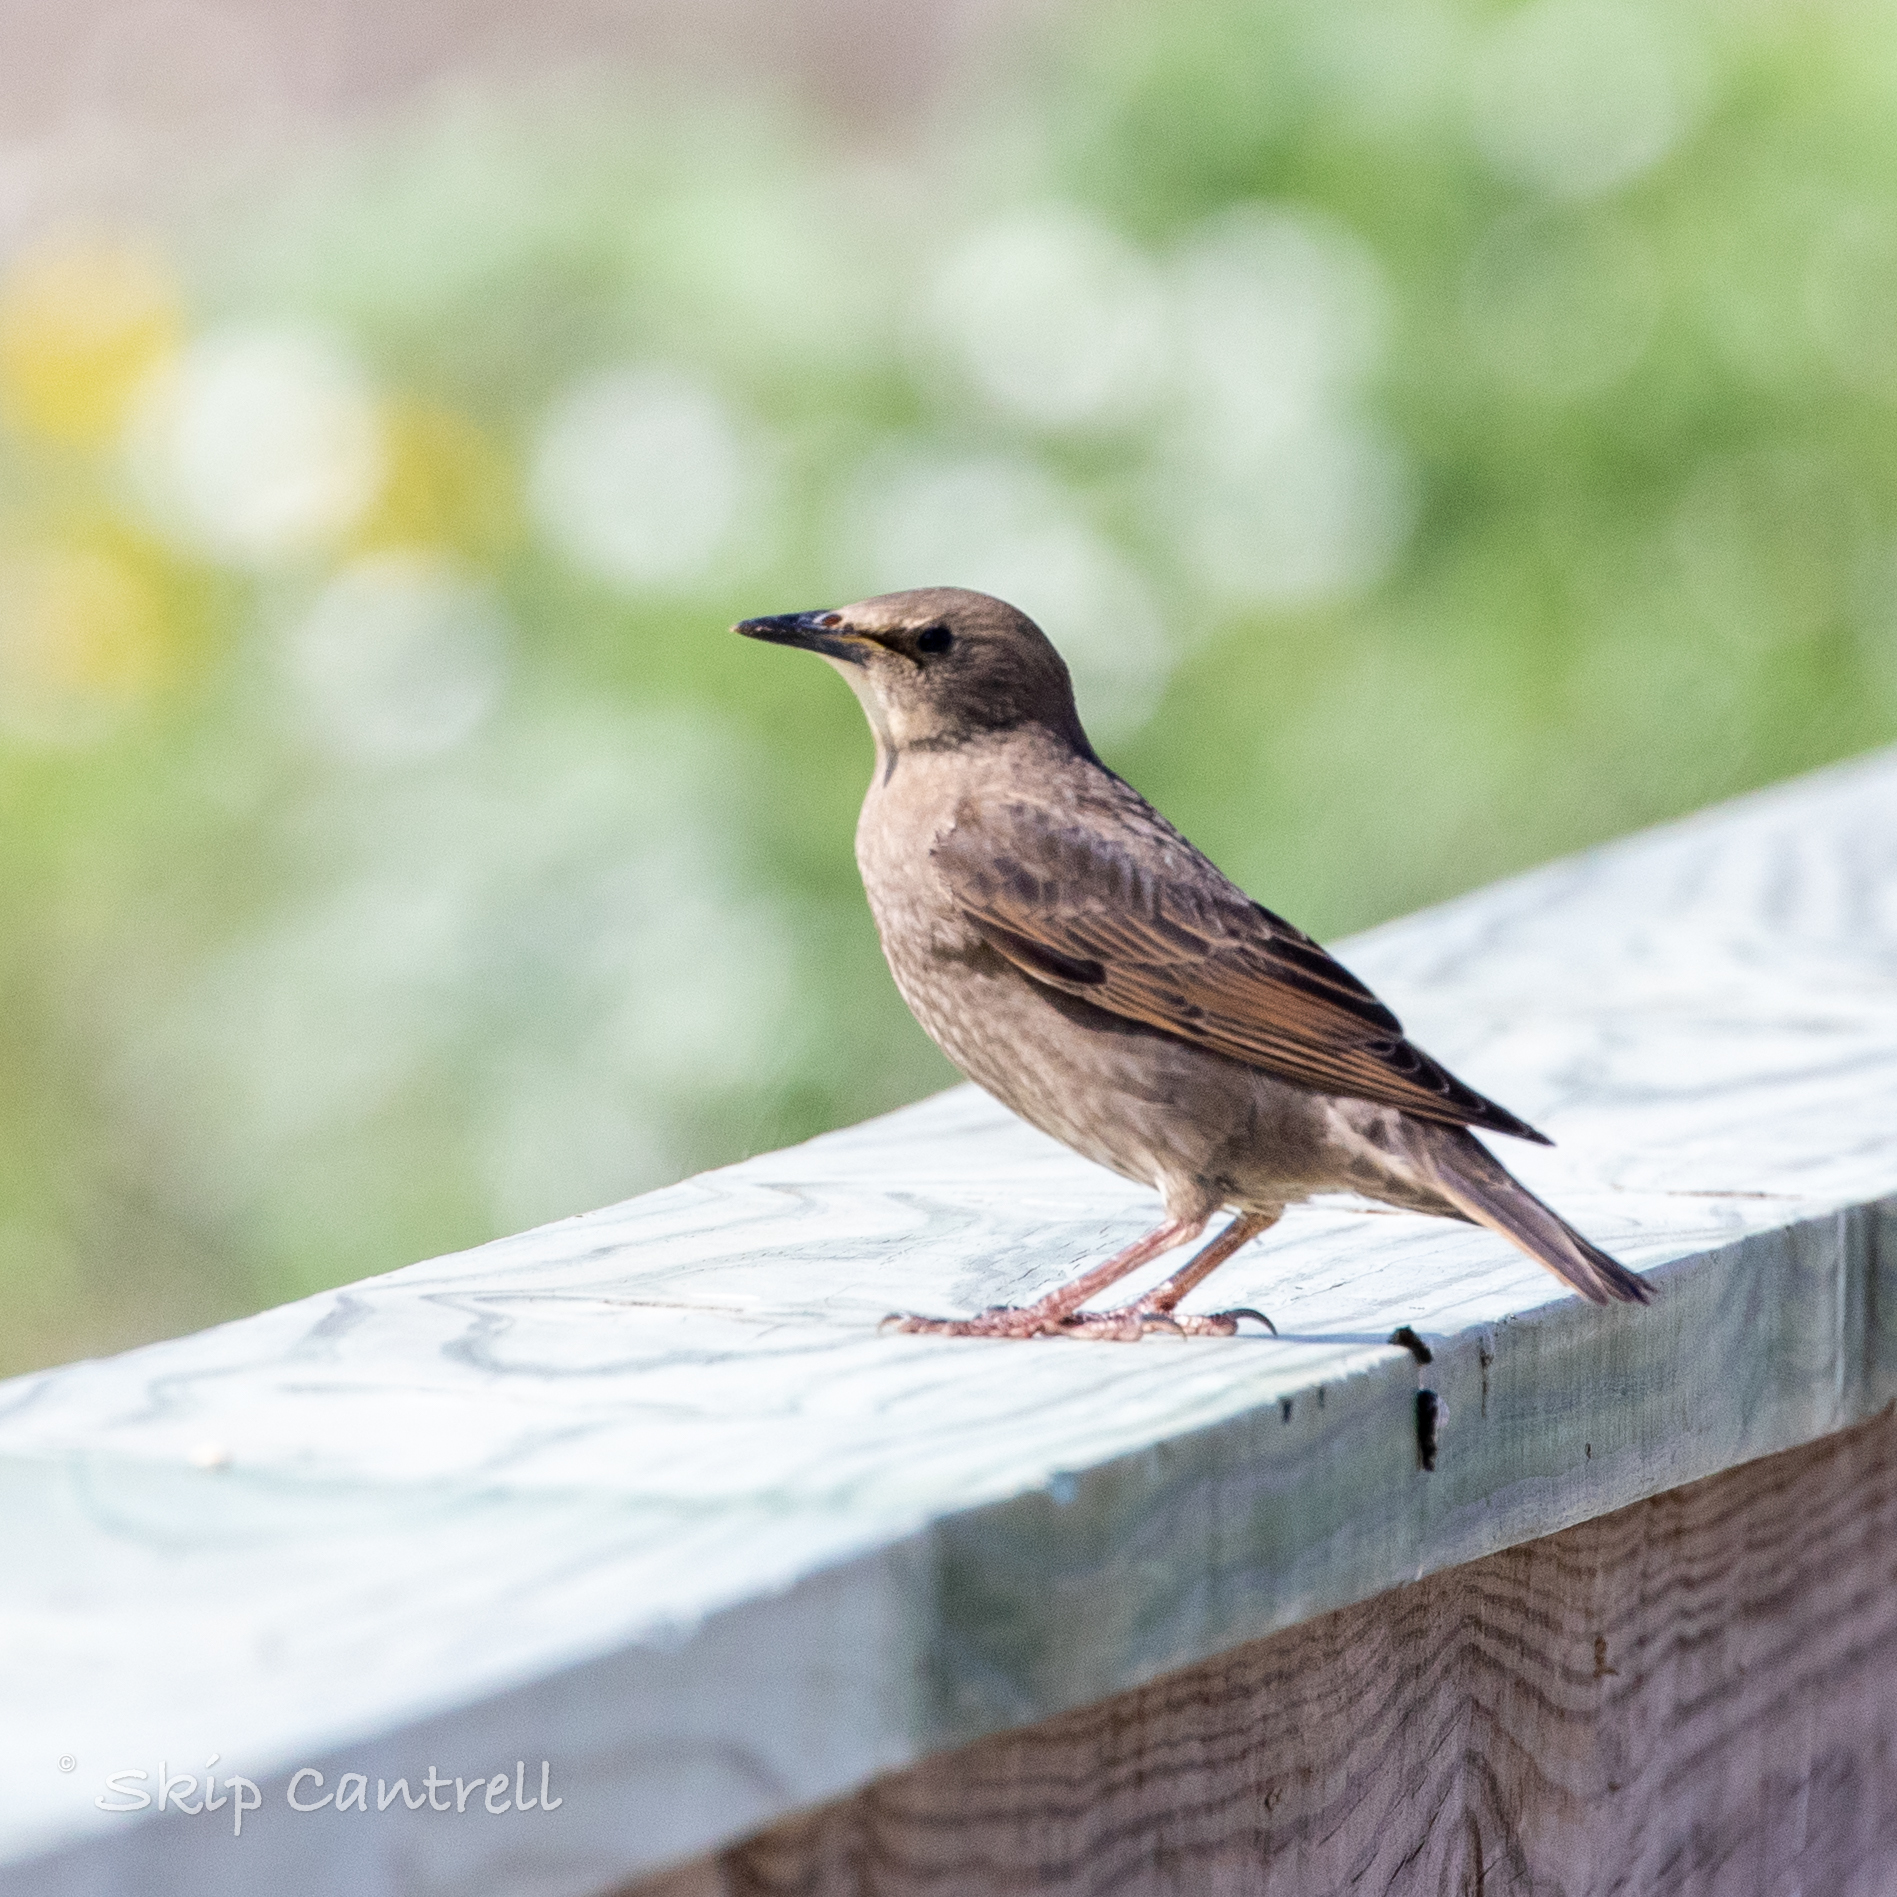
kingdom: Animalia
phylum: Chordata
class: Aves
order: Passeriformes
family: Sturnidae
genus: Sturnus
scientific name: Sturnus vulgaris
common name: Common starling
